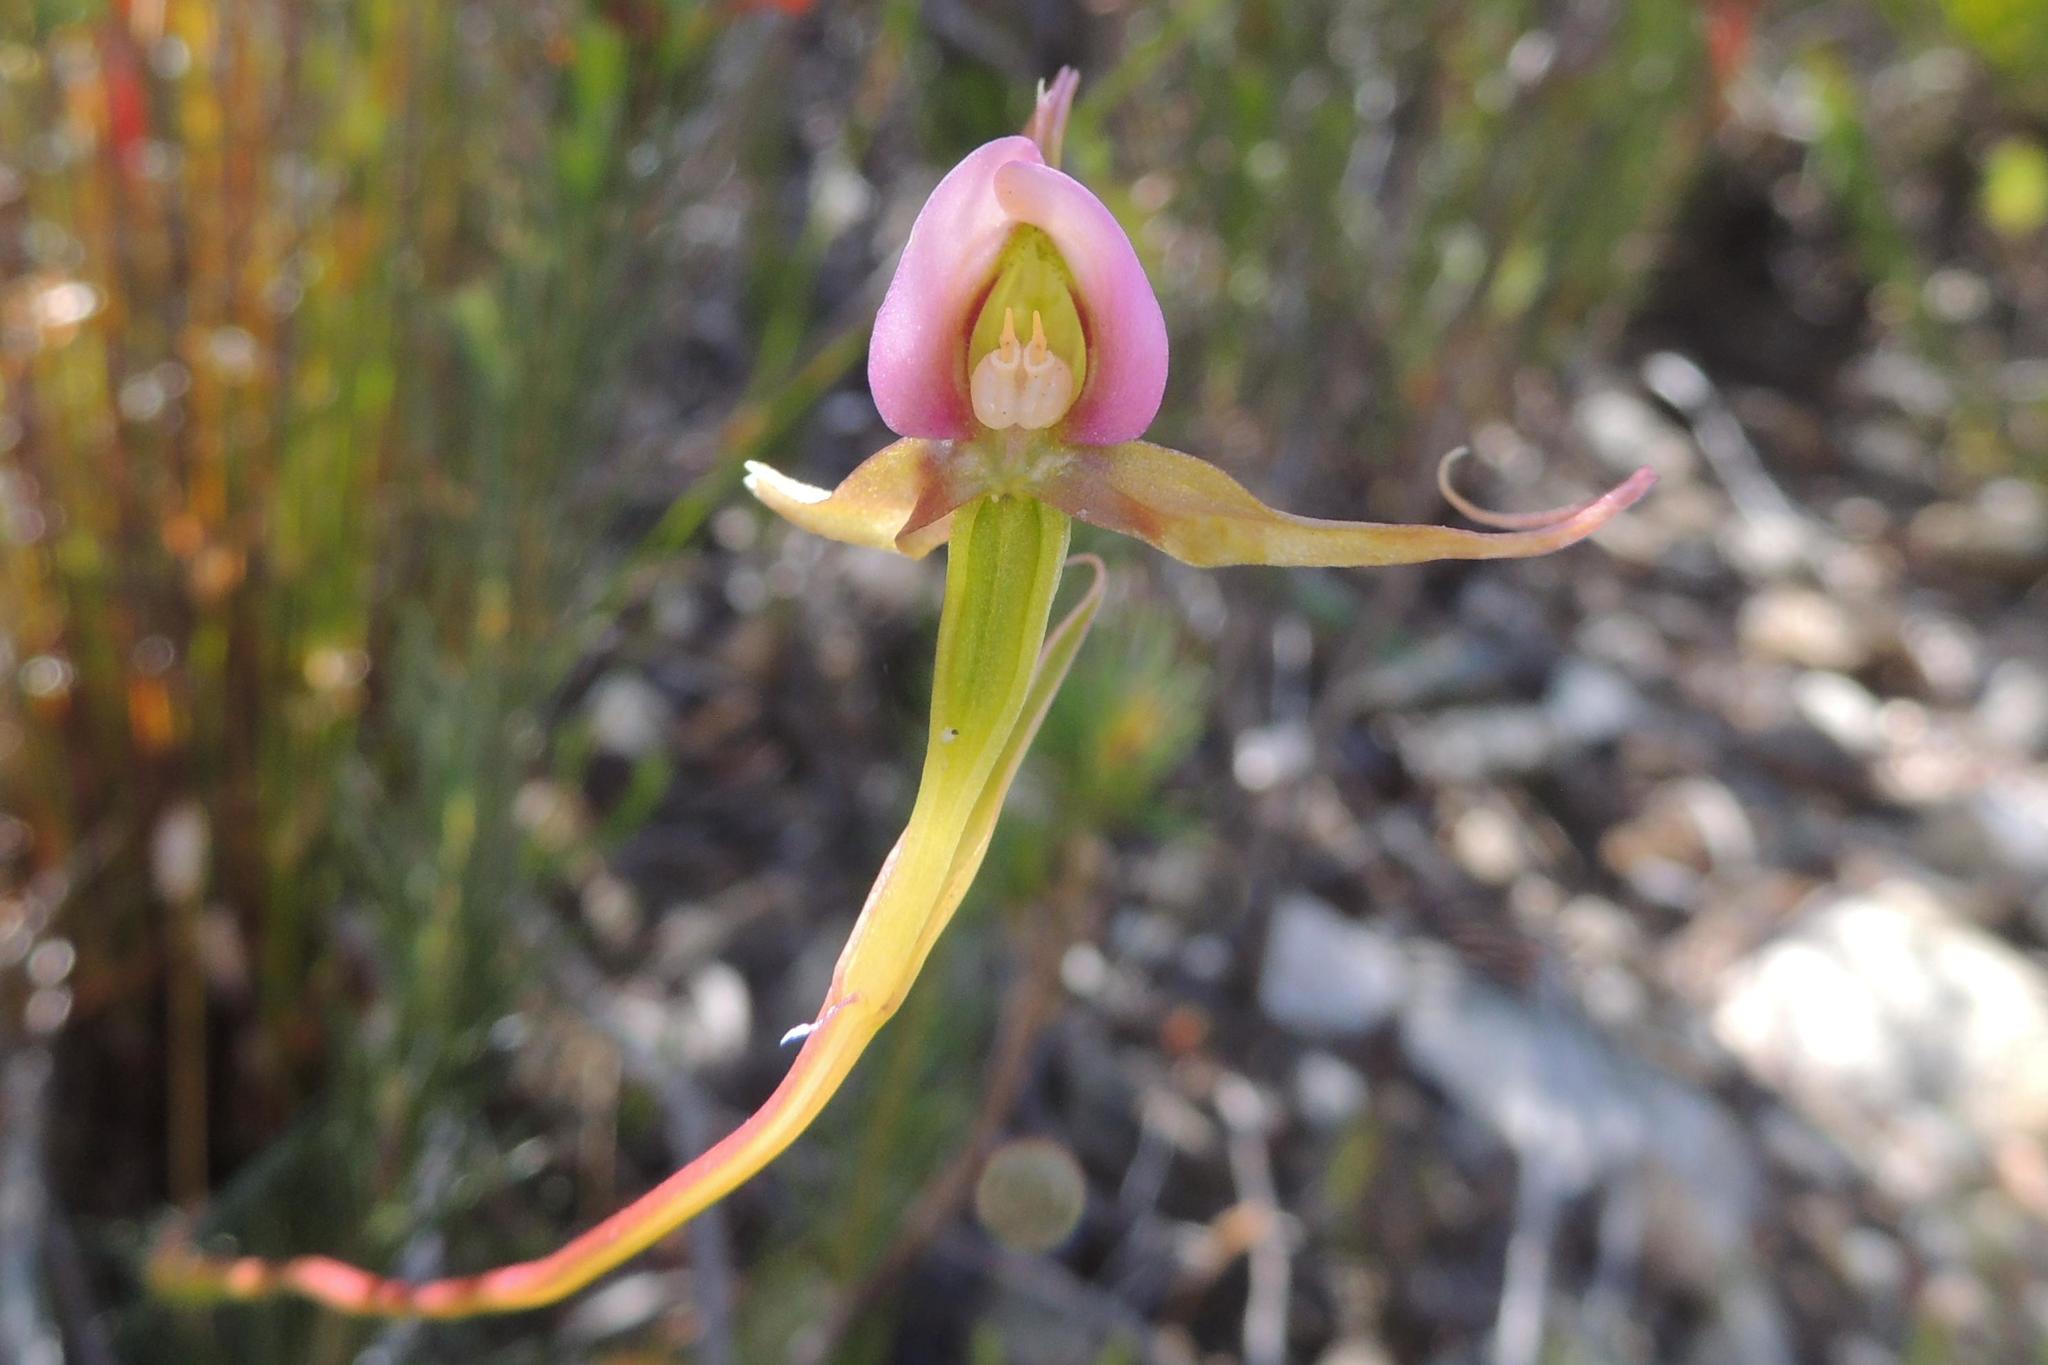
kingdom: Plantae
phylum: Tracheophyta
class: Liliopsida
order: Asparagales
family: Orchidaceae
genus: Disperis
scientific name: Disperis capensis
